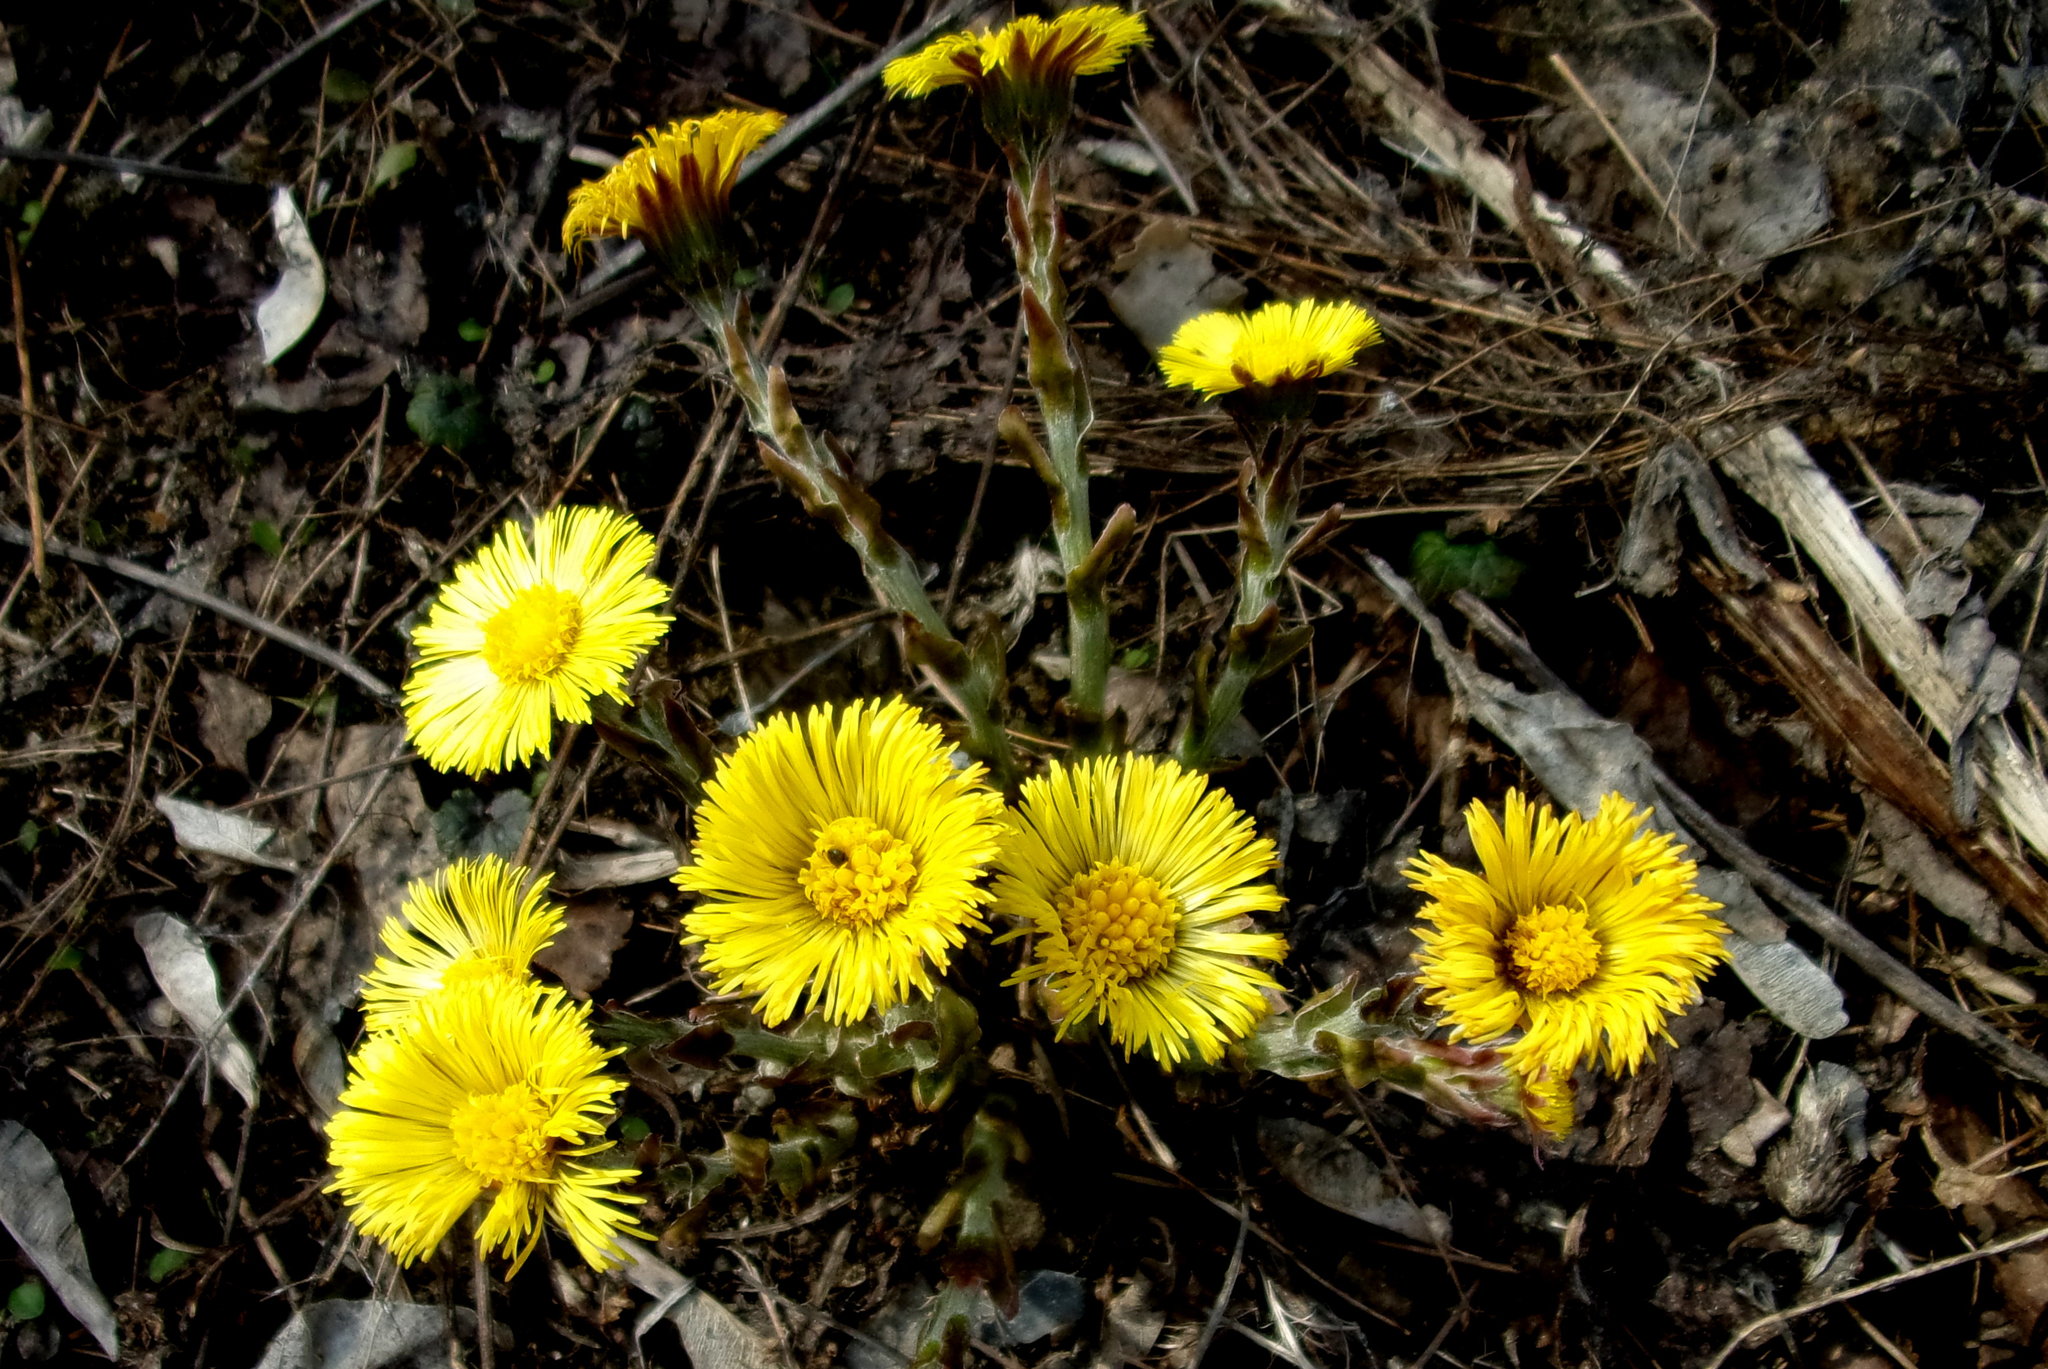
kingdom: Plantae
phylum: Tracheophyta
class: Magnoliopsida
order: Asterales
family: Asteraceae
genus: Tussilago
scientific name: Tussilago farfara
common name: Coltsfoot
